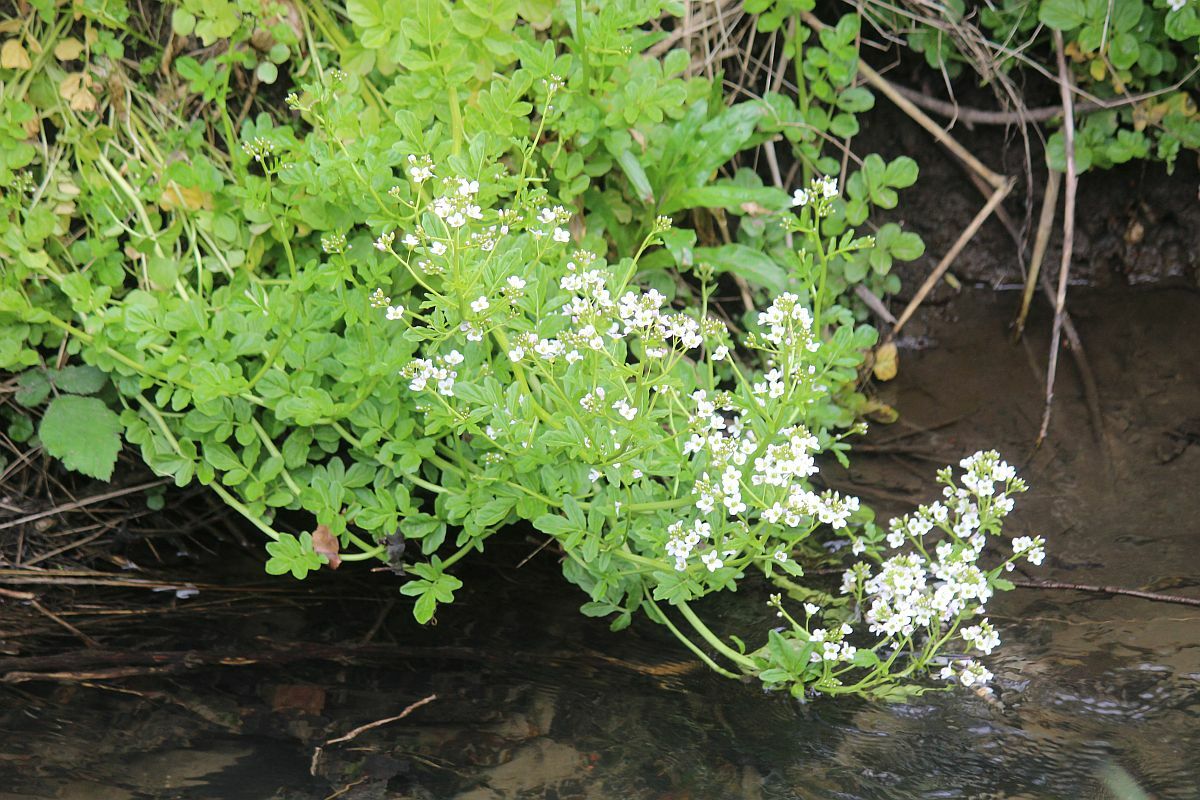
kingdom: Plantae
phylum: Tracheophyta
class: Magnoliopsida
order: Brassicales
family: Brassicaceae
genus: Cardamine
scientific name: Cardamine amara
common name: Large bitter-cress
